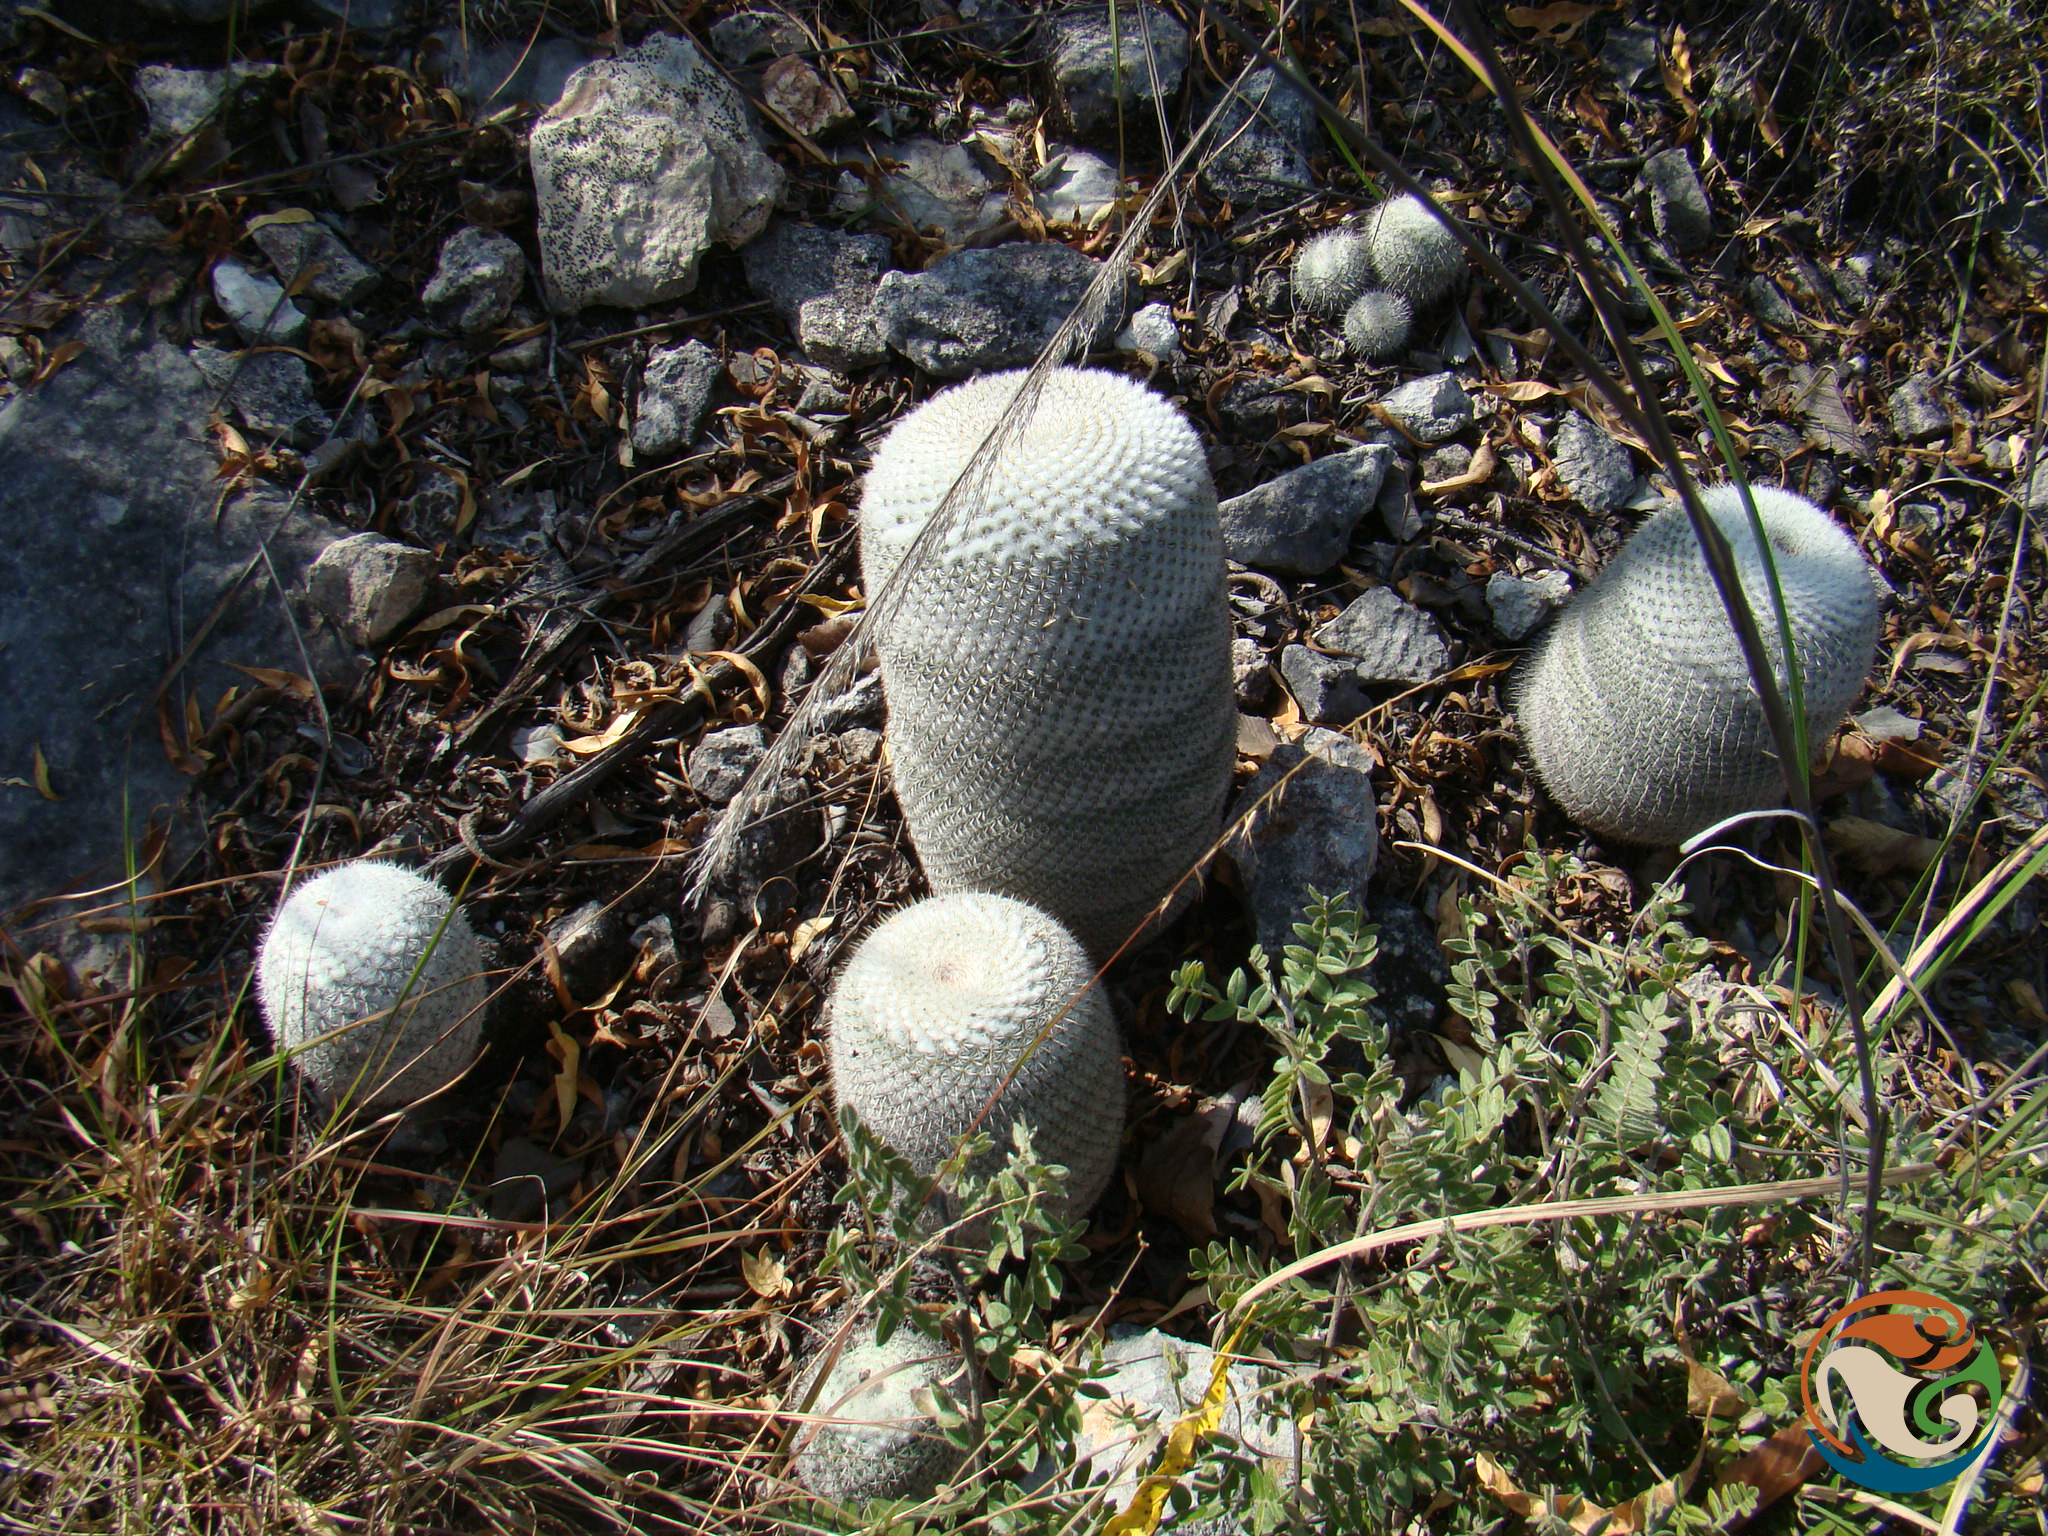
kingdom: Plantae
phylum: Tracheophyta
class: Magnoliopsida
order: Caryophyllales
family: Cactaceae
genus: Mammillaria
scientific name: Mammillaria albilanata
